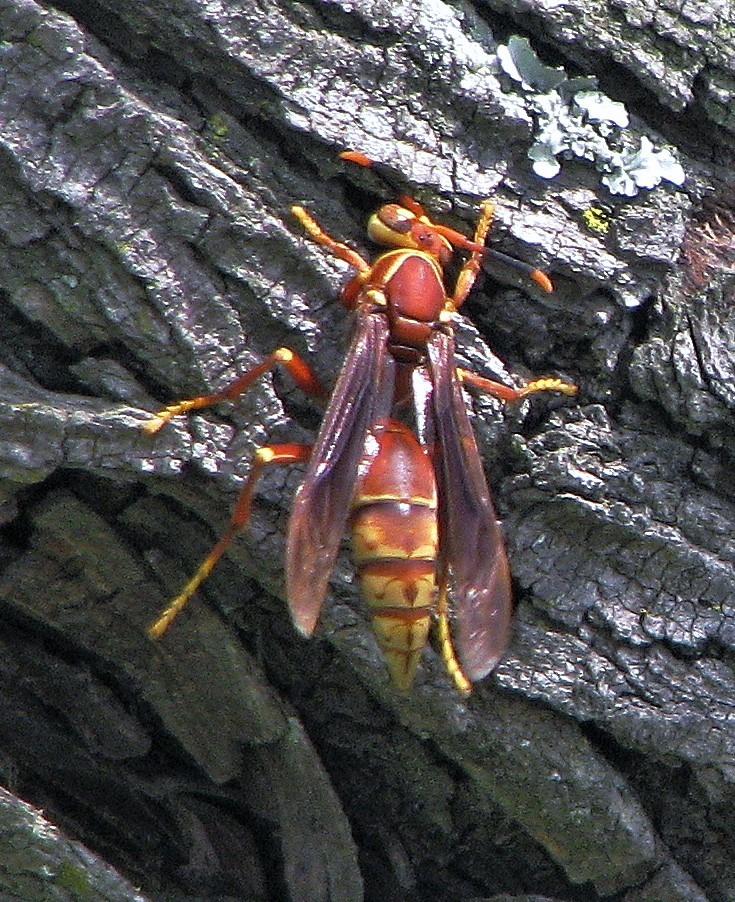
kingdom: Animalia
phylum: Arthropoda
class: Insecta
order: Hymenoptera
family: Eumenidae
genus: Polistes
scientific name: Polistes cavapyta
